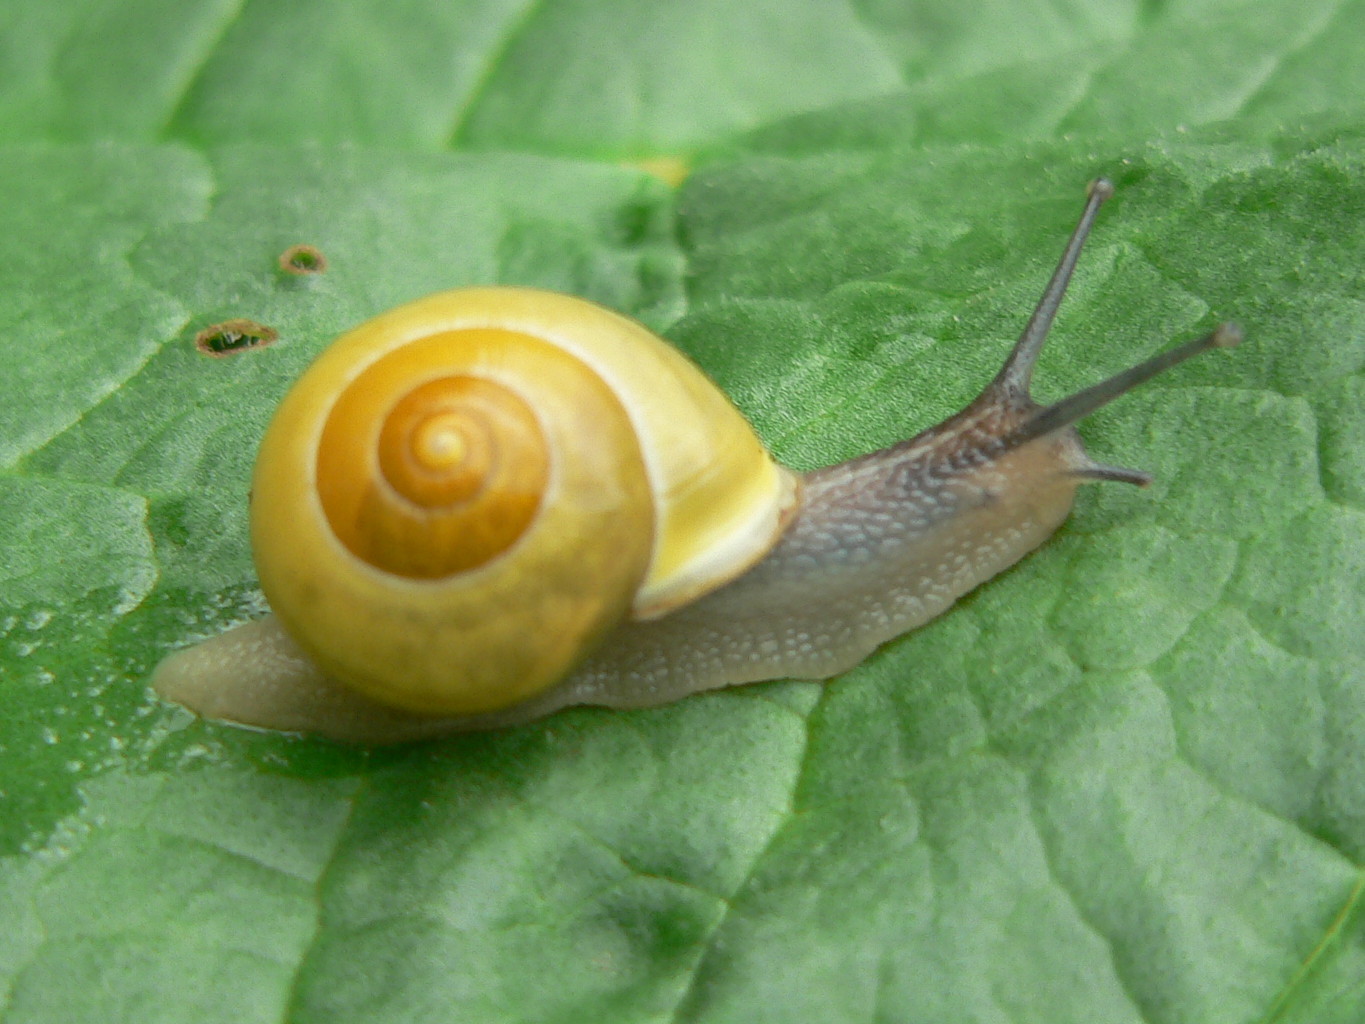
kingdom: Animalia
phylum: Mollusca
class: Gastropoda
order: Stylommatophora
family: Helicidae
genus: Cepaea
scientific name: Cepaea hortensis
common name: White-lip gardensnail
